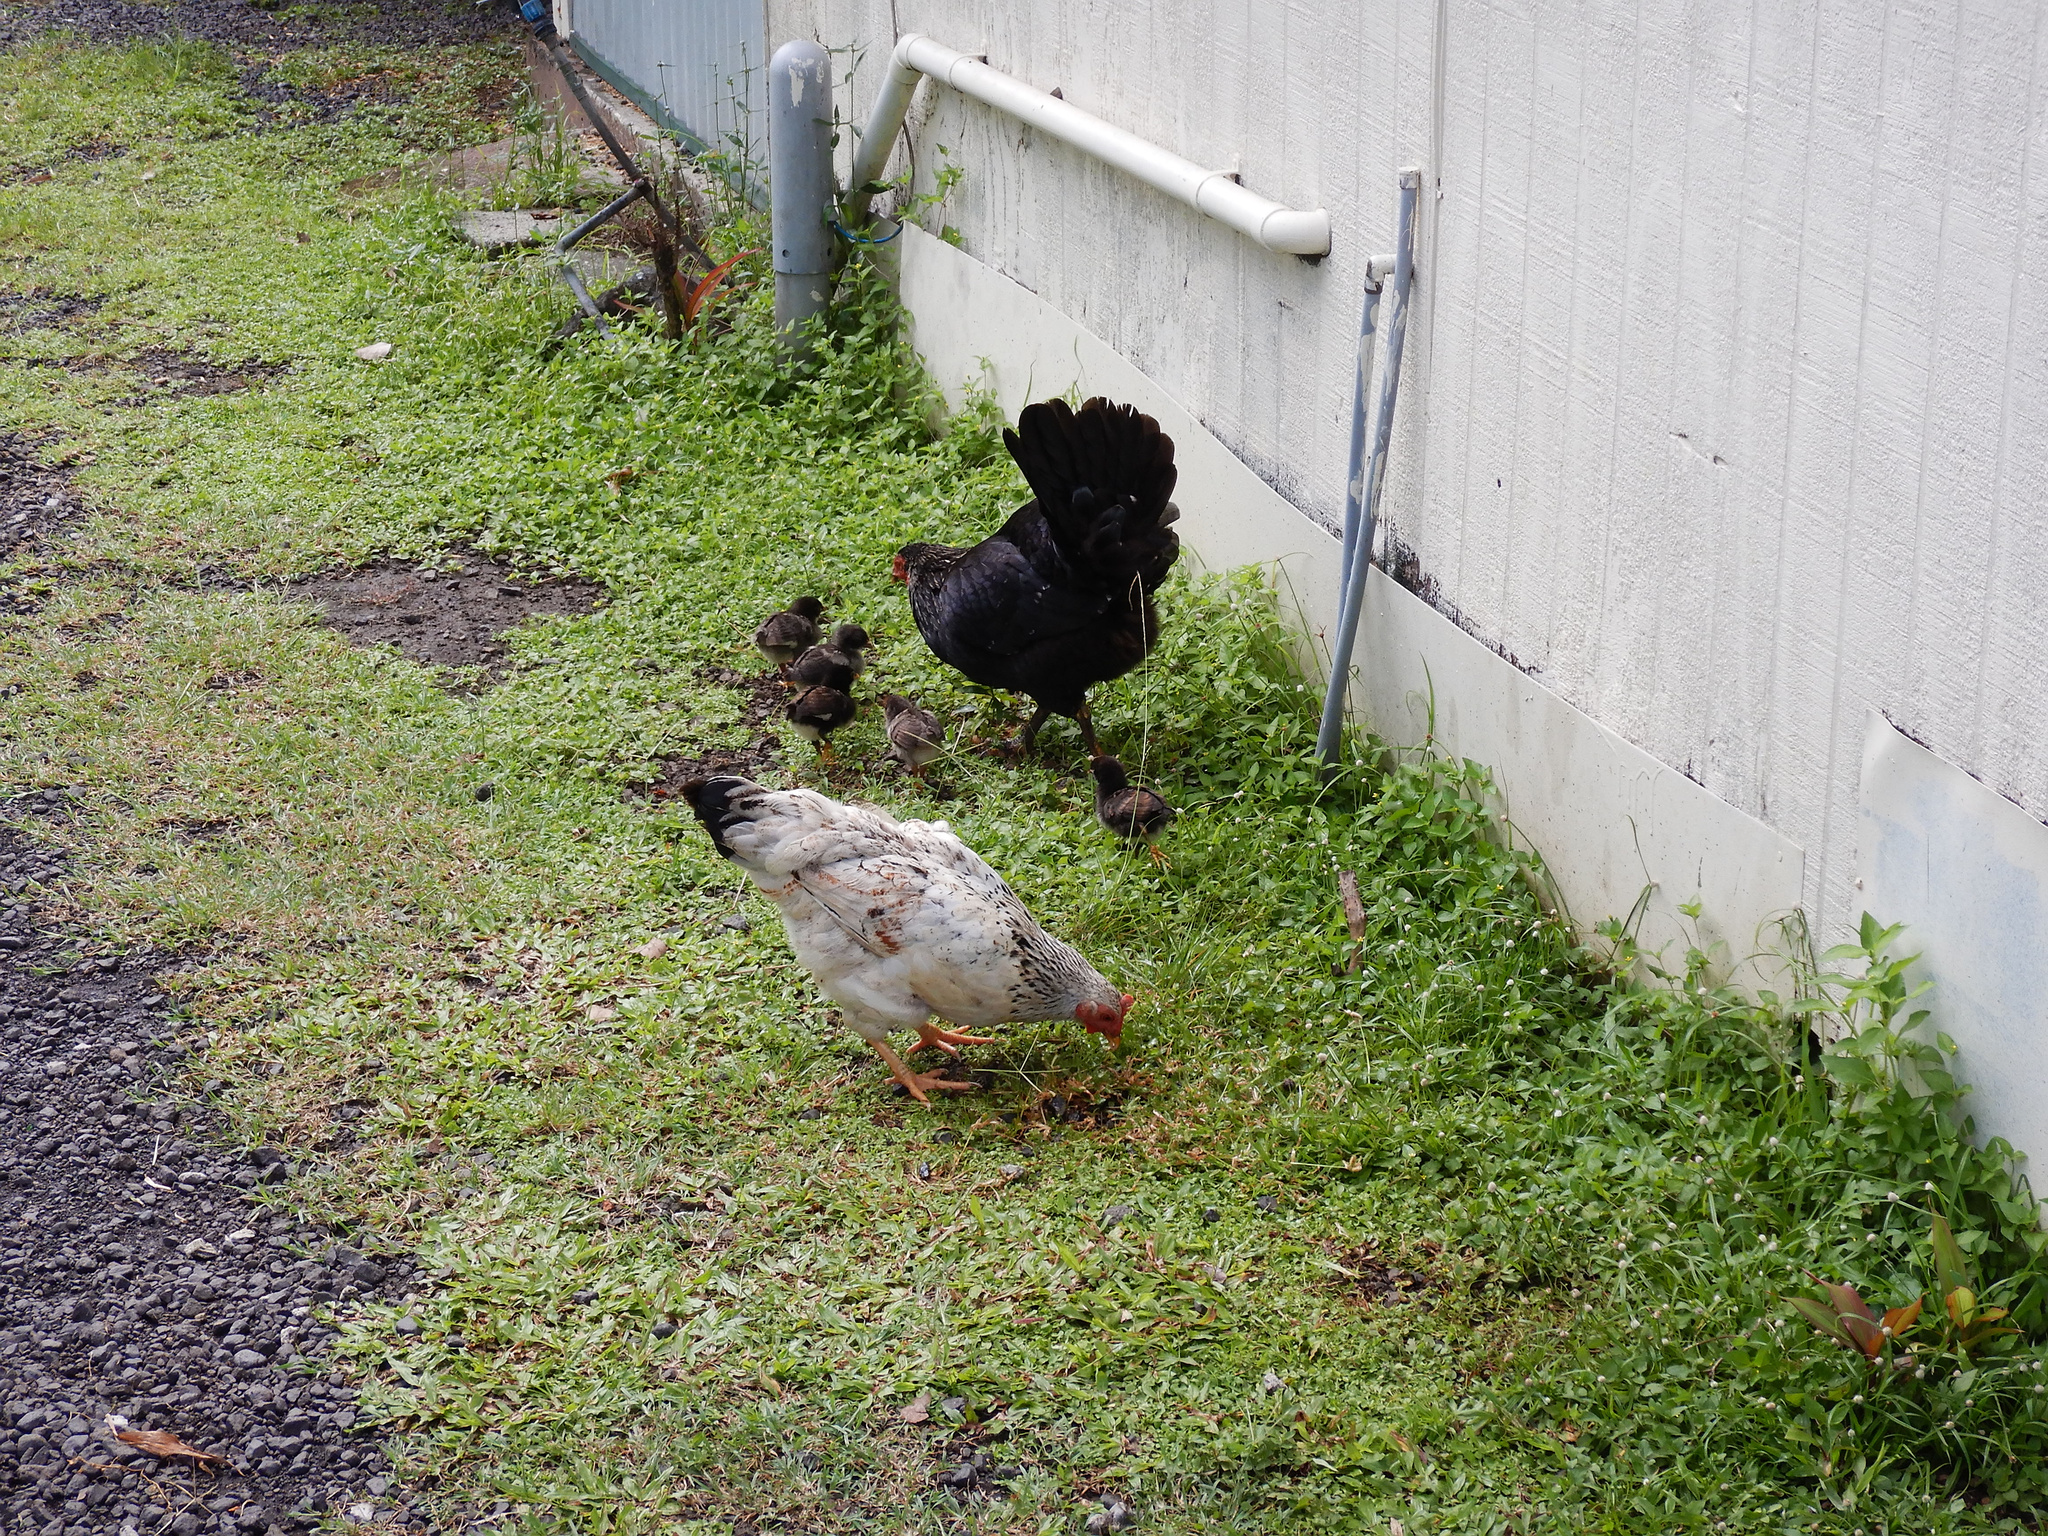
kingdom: Animalia
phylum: Chordata
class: Aves
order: Galliformes
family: Phasianidae
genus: Gallus
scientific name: Gallus gallus
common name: Red junglefowl
